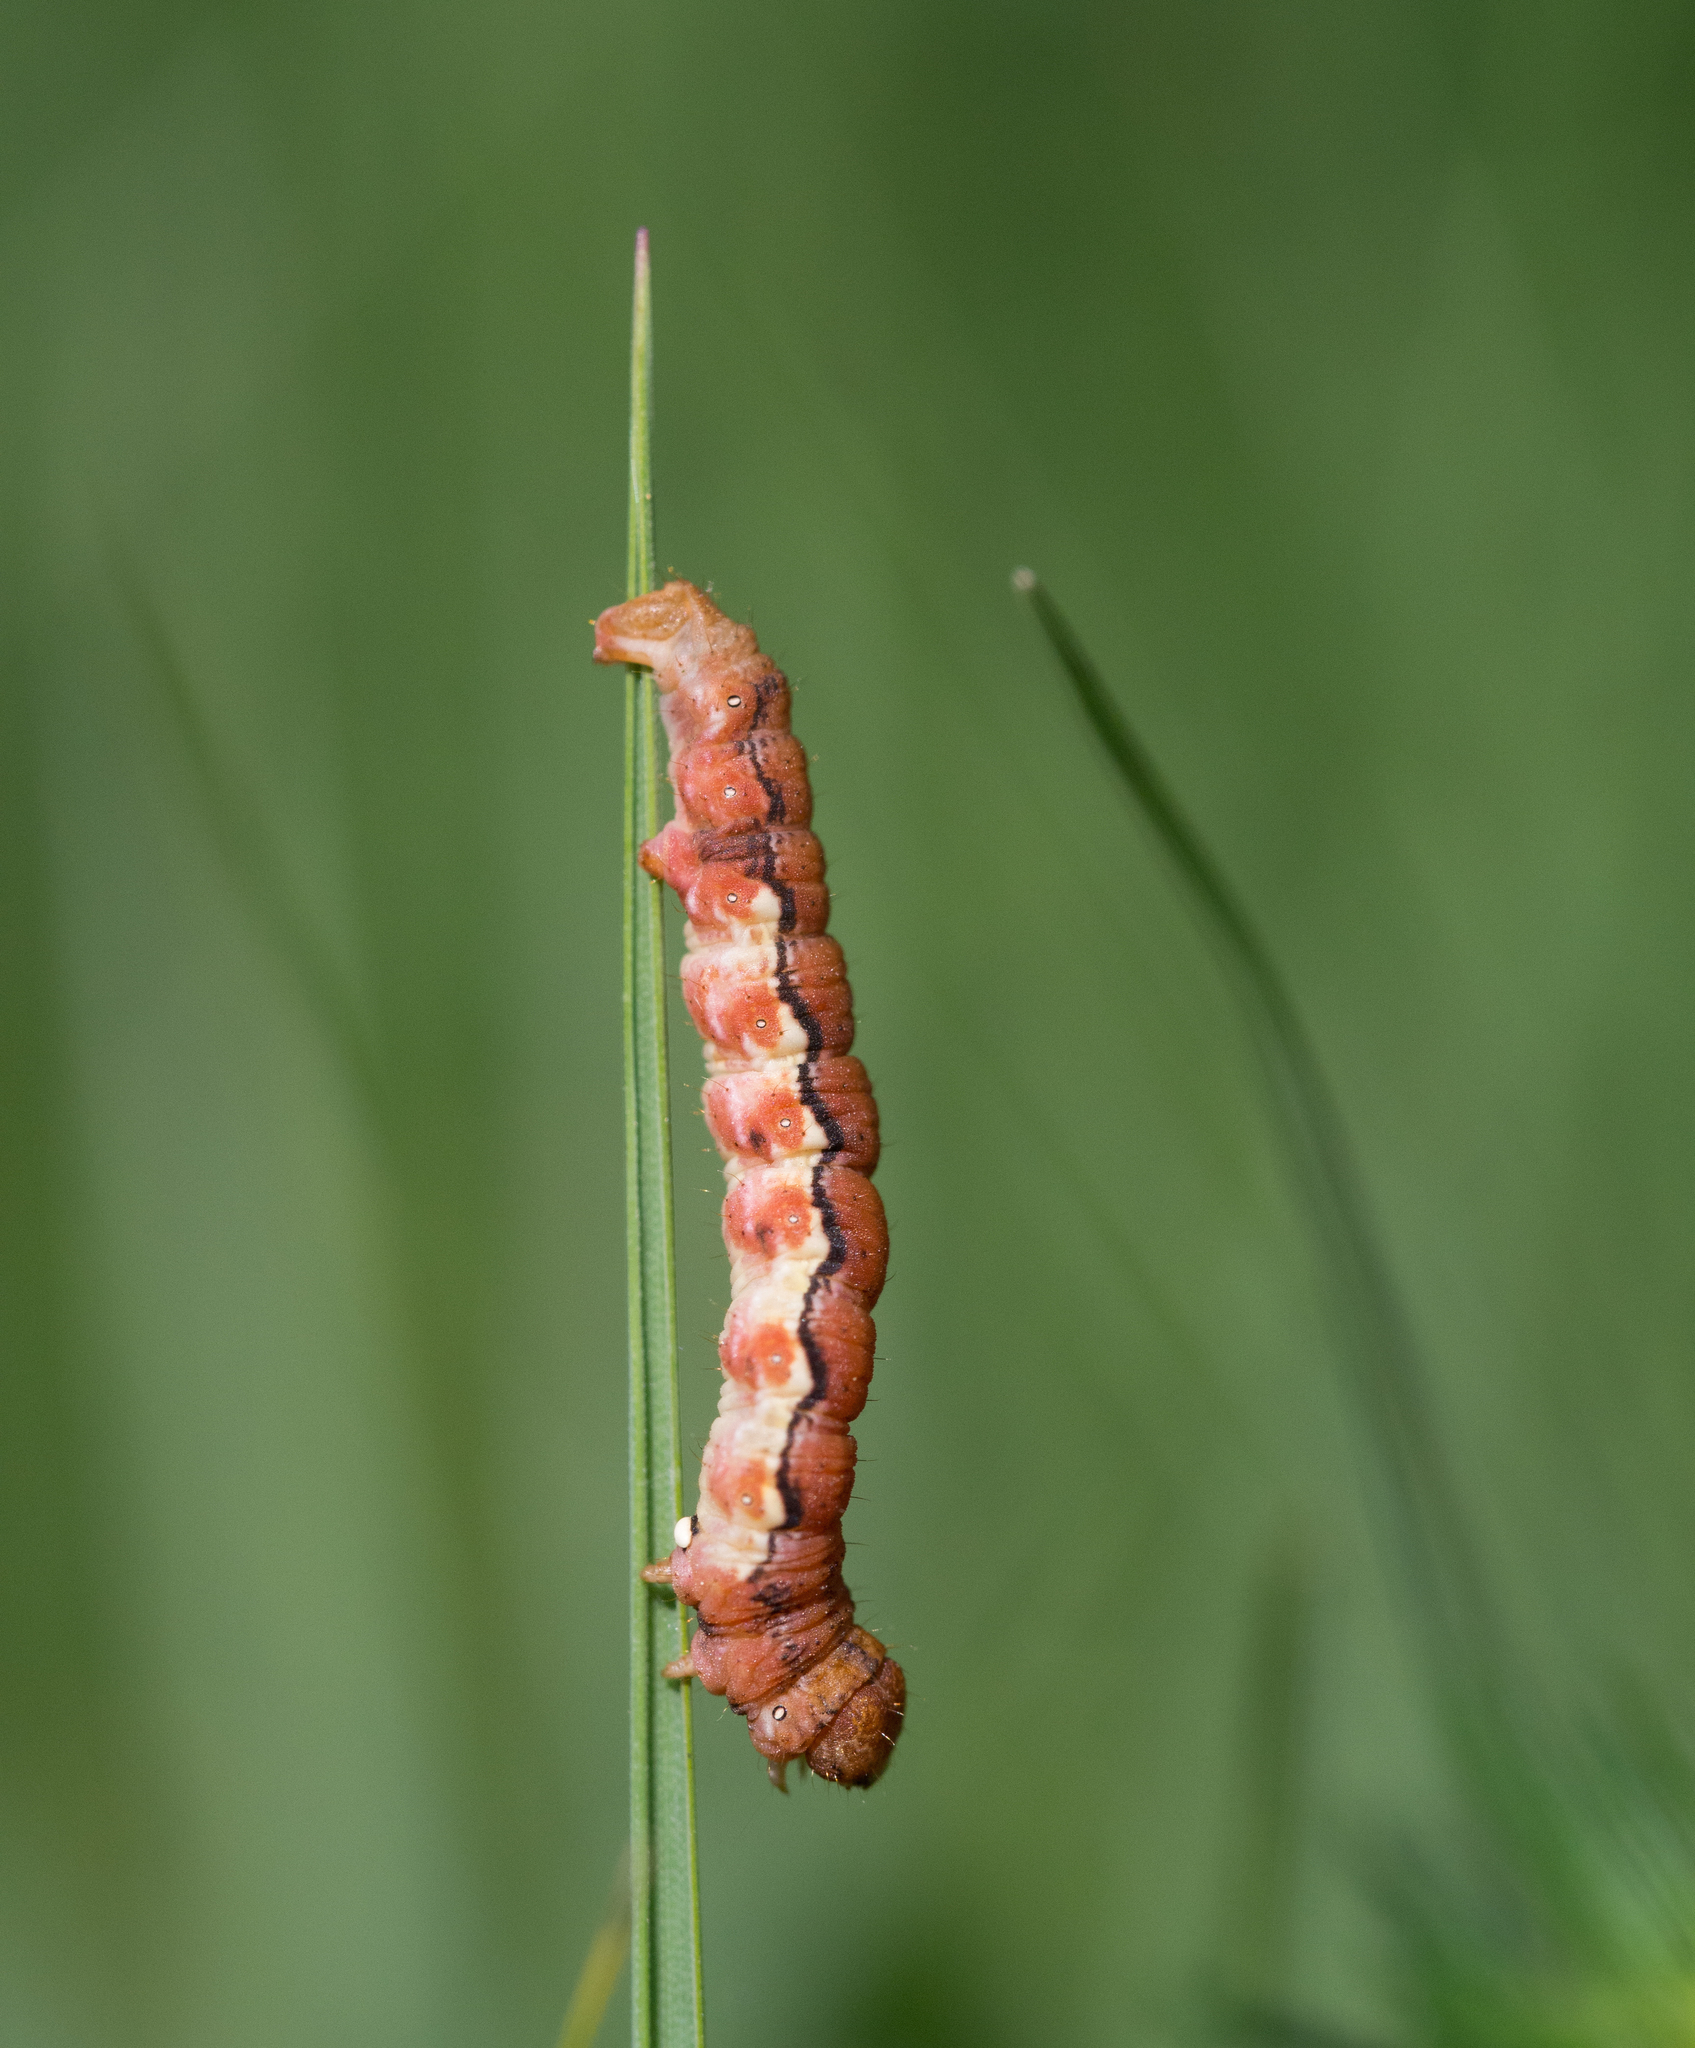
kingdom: Animalia
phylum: Arthropoda
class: Insecta
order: Lepidoptera
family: Geometridae
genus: Erannis
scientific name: Erannis defoliaria
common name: Mottled umber
